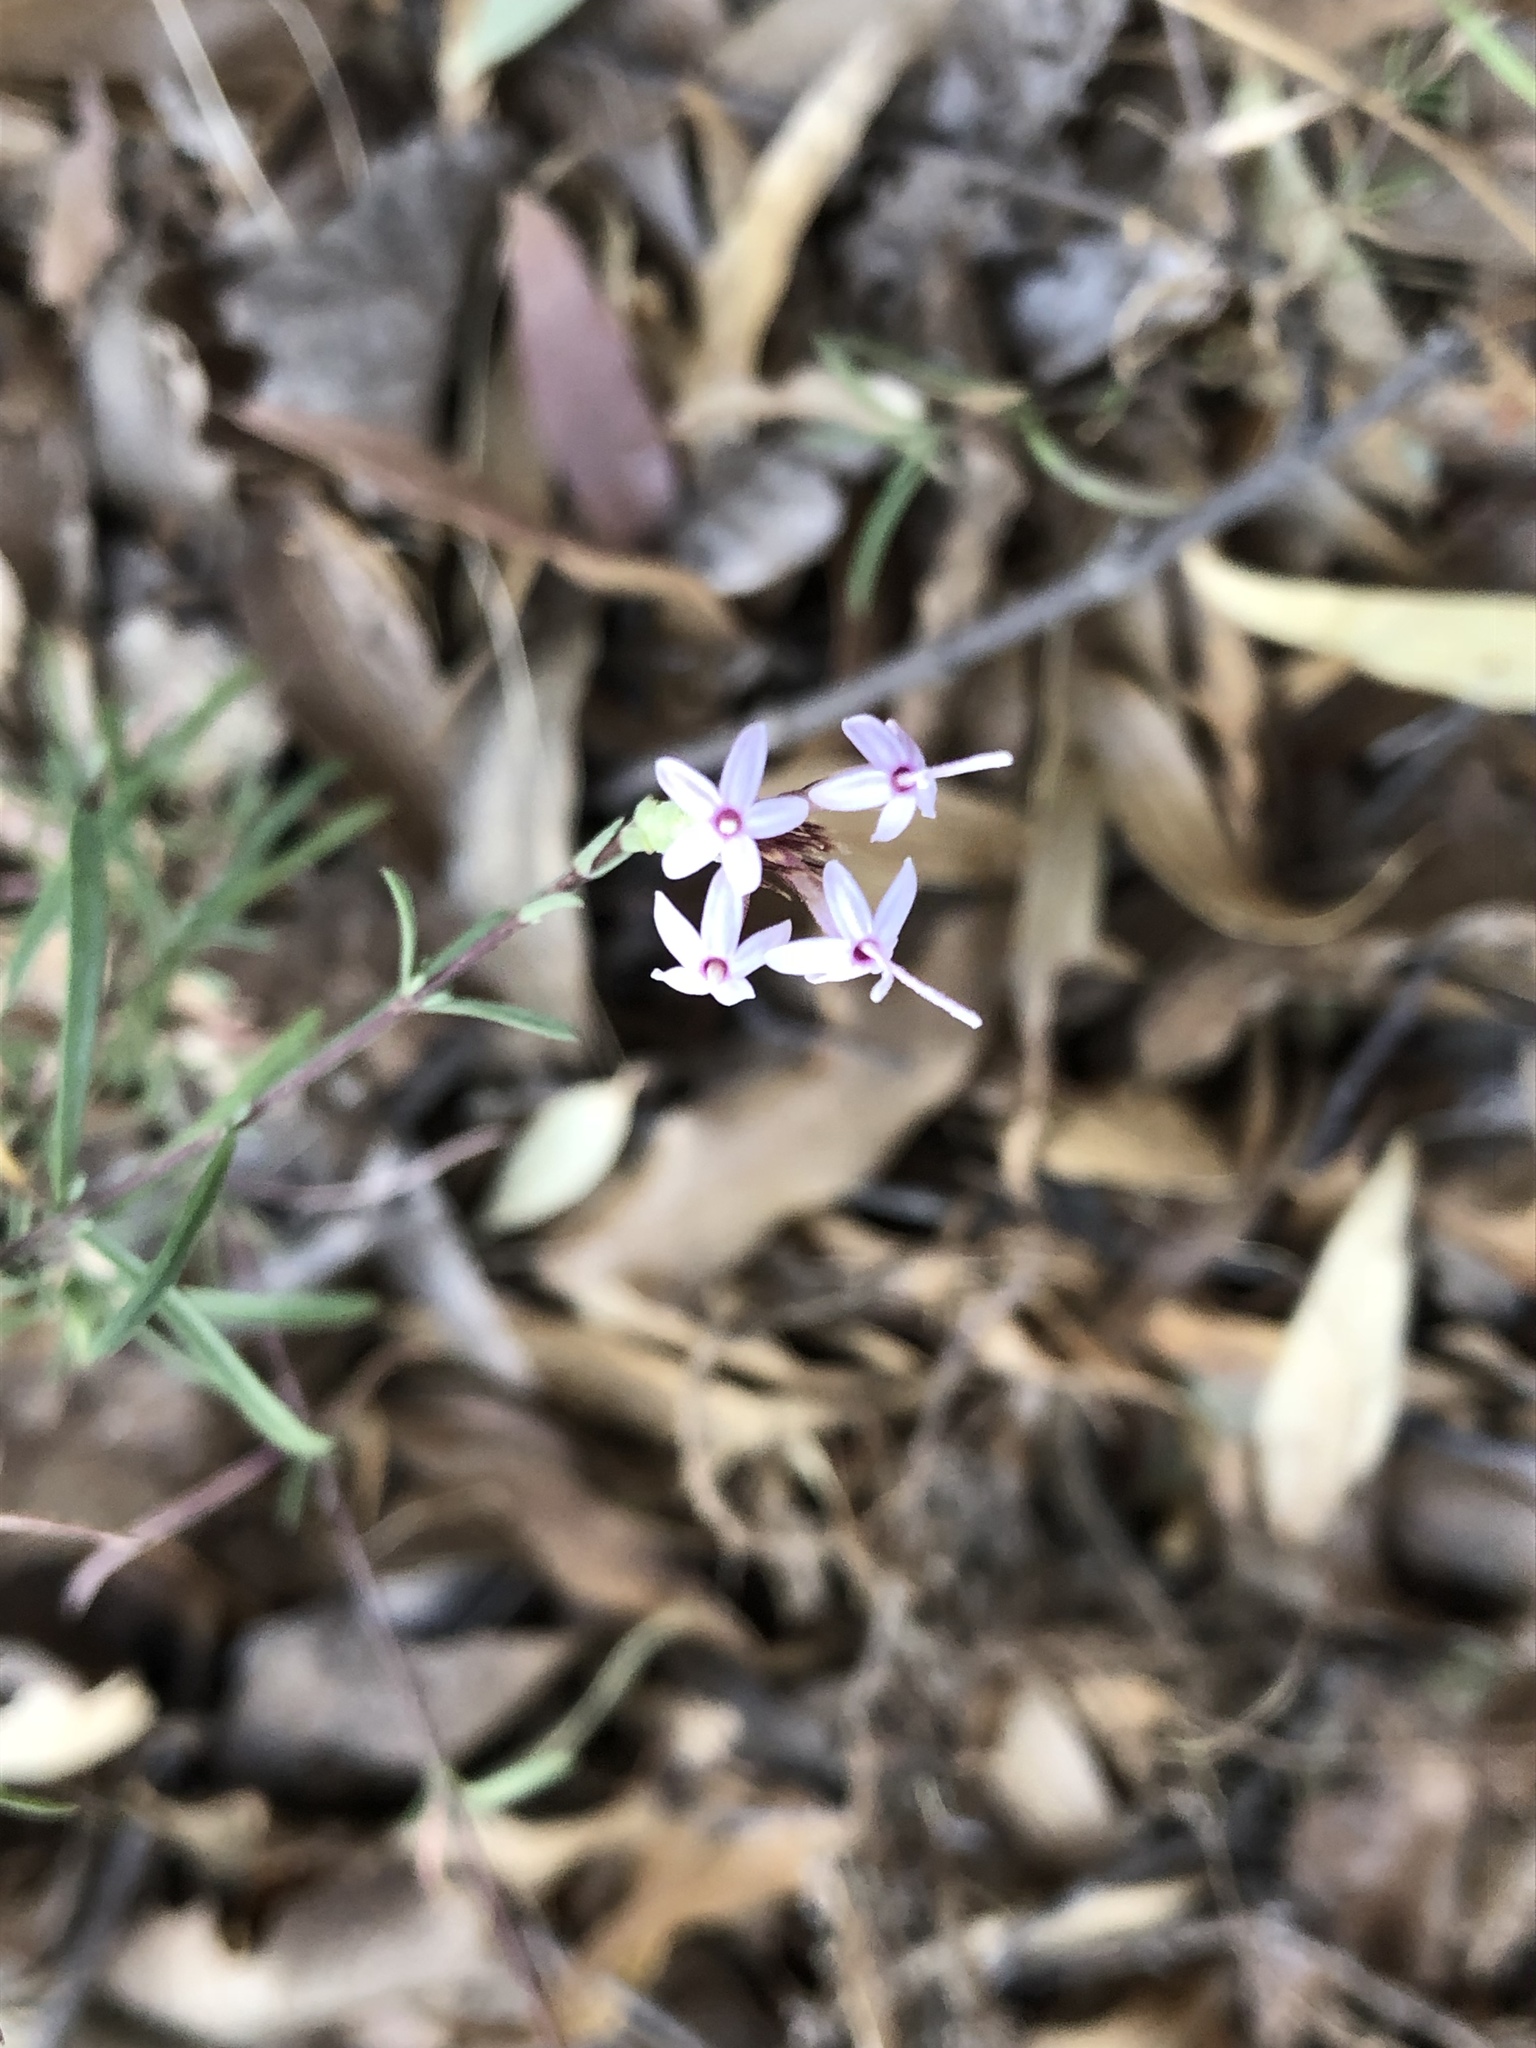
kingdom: Plantae
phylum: Tracheophyta
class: Magnoliopsida
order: Asterales
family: Asteraceae
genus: Carphochaete
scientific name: Carphochaete bigelovii
